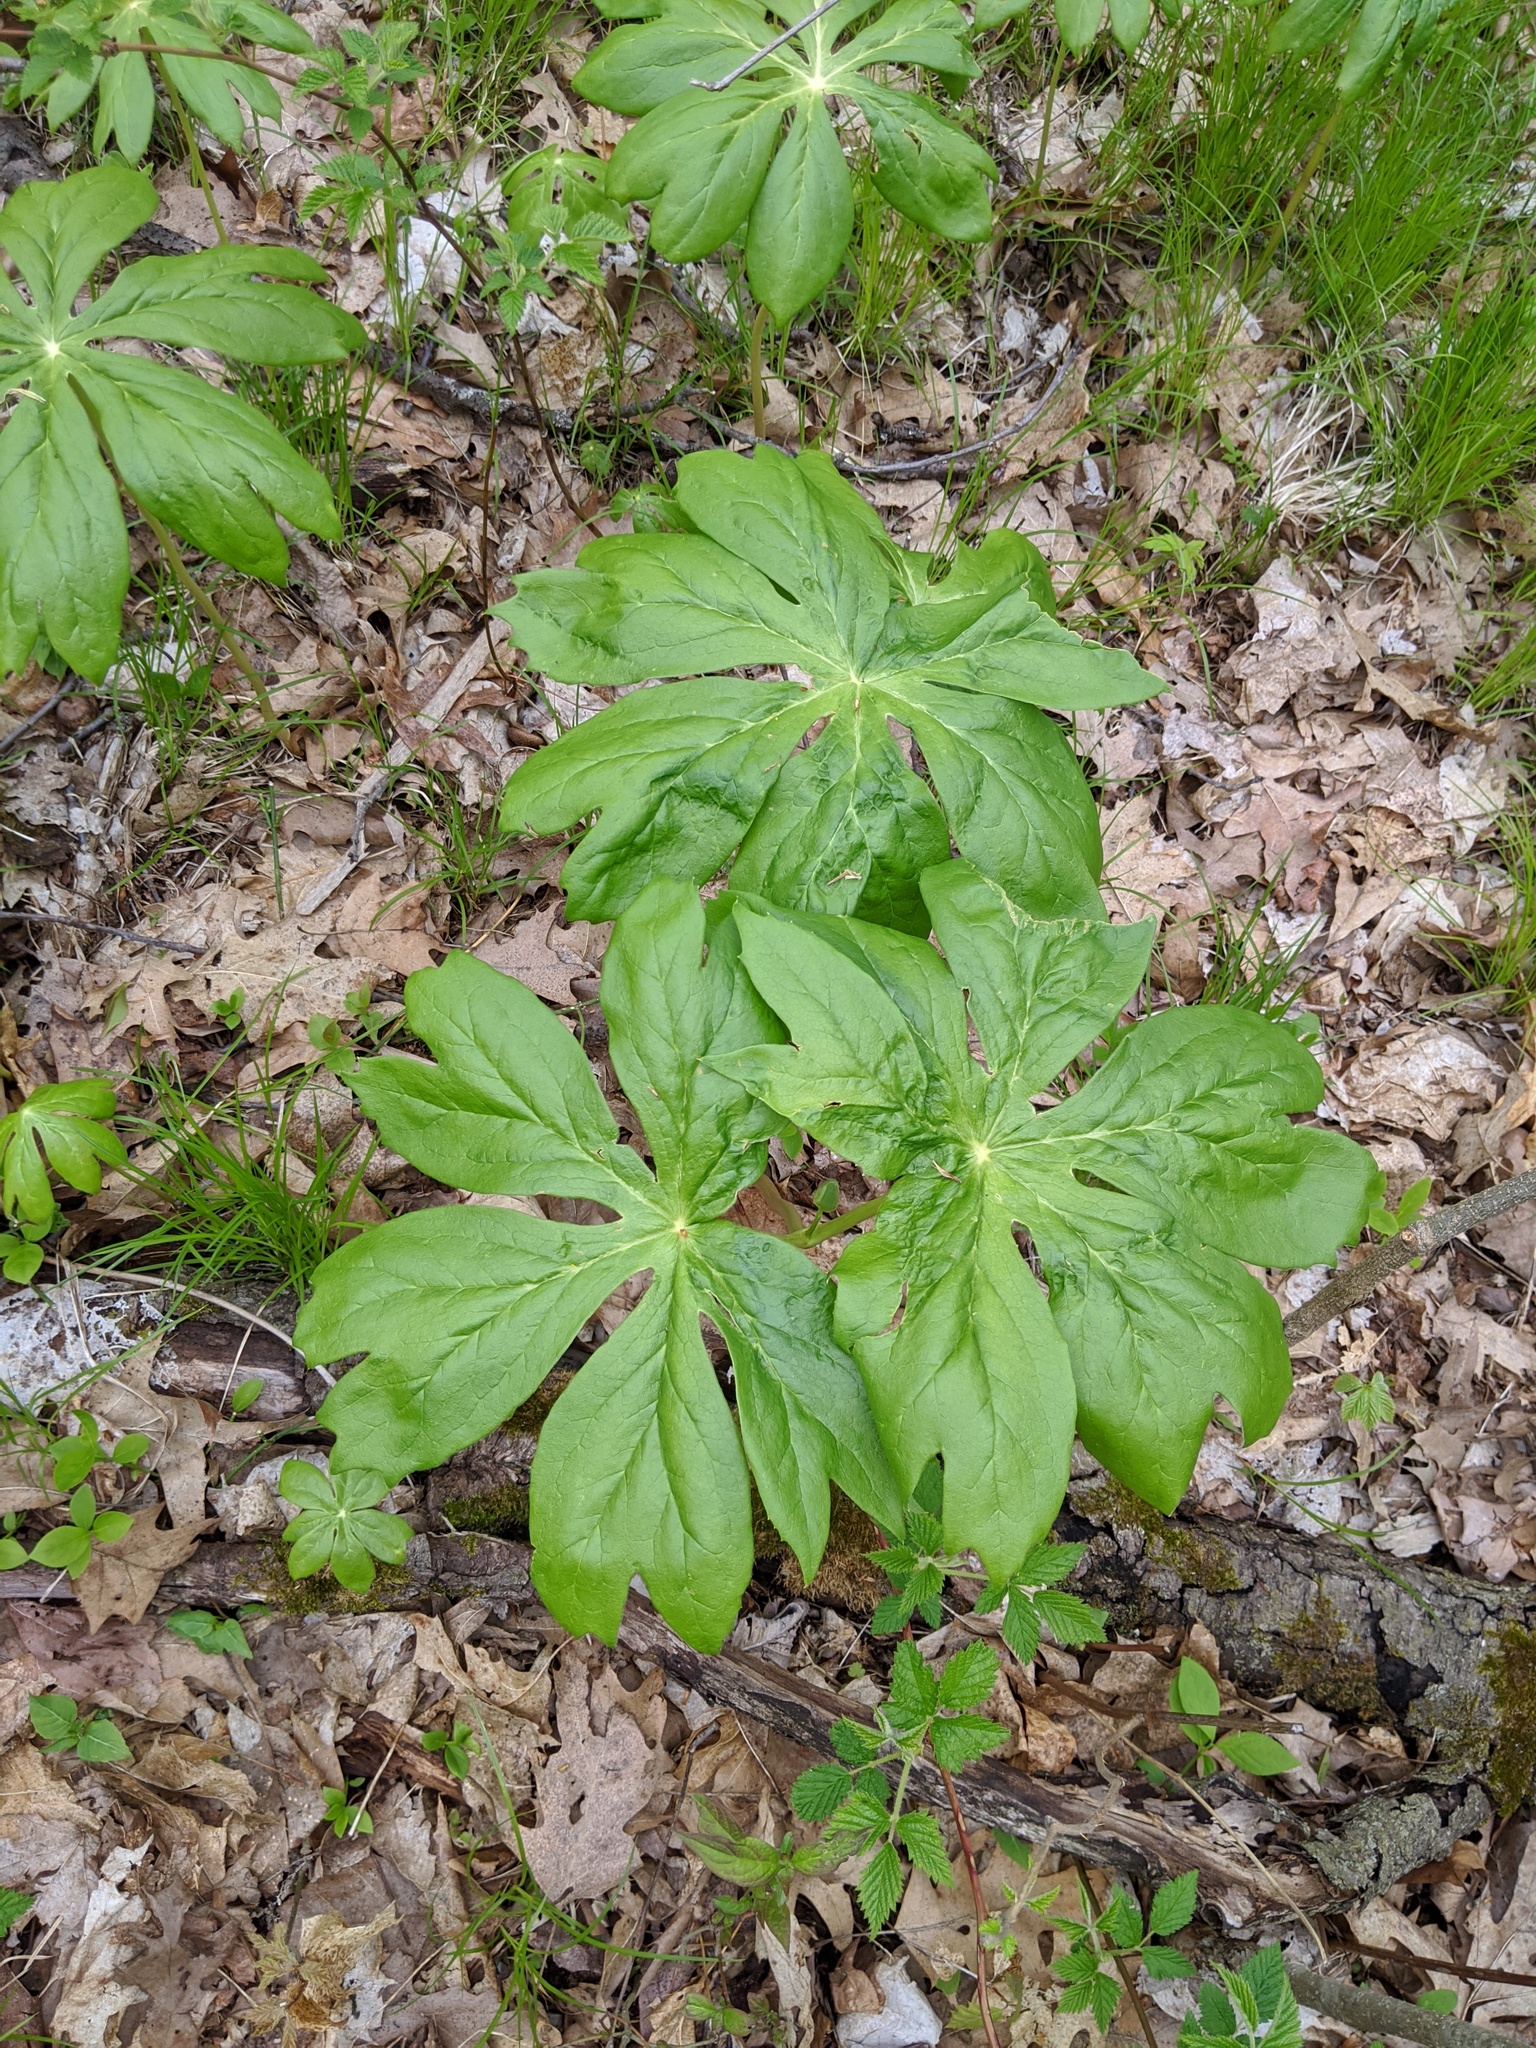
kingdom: Plantae
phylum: Tracheophyta
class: Magnoliopsida
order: Ranunculales
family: Berberidaceae
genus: Podophyllum
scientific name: Podophyllum peltatum
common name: Wild mandrake
